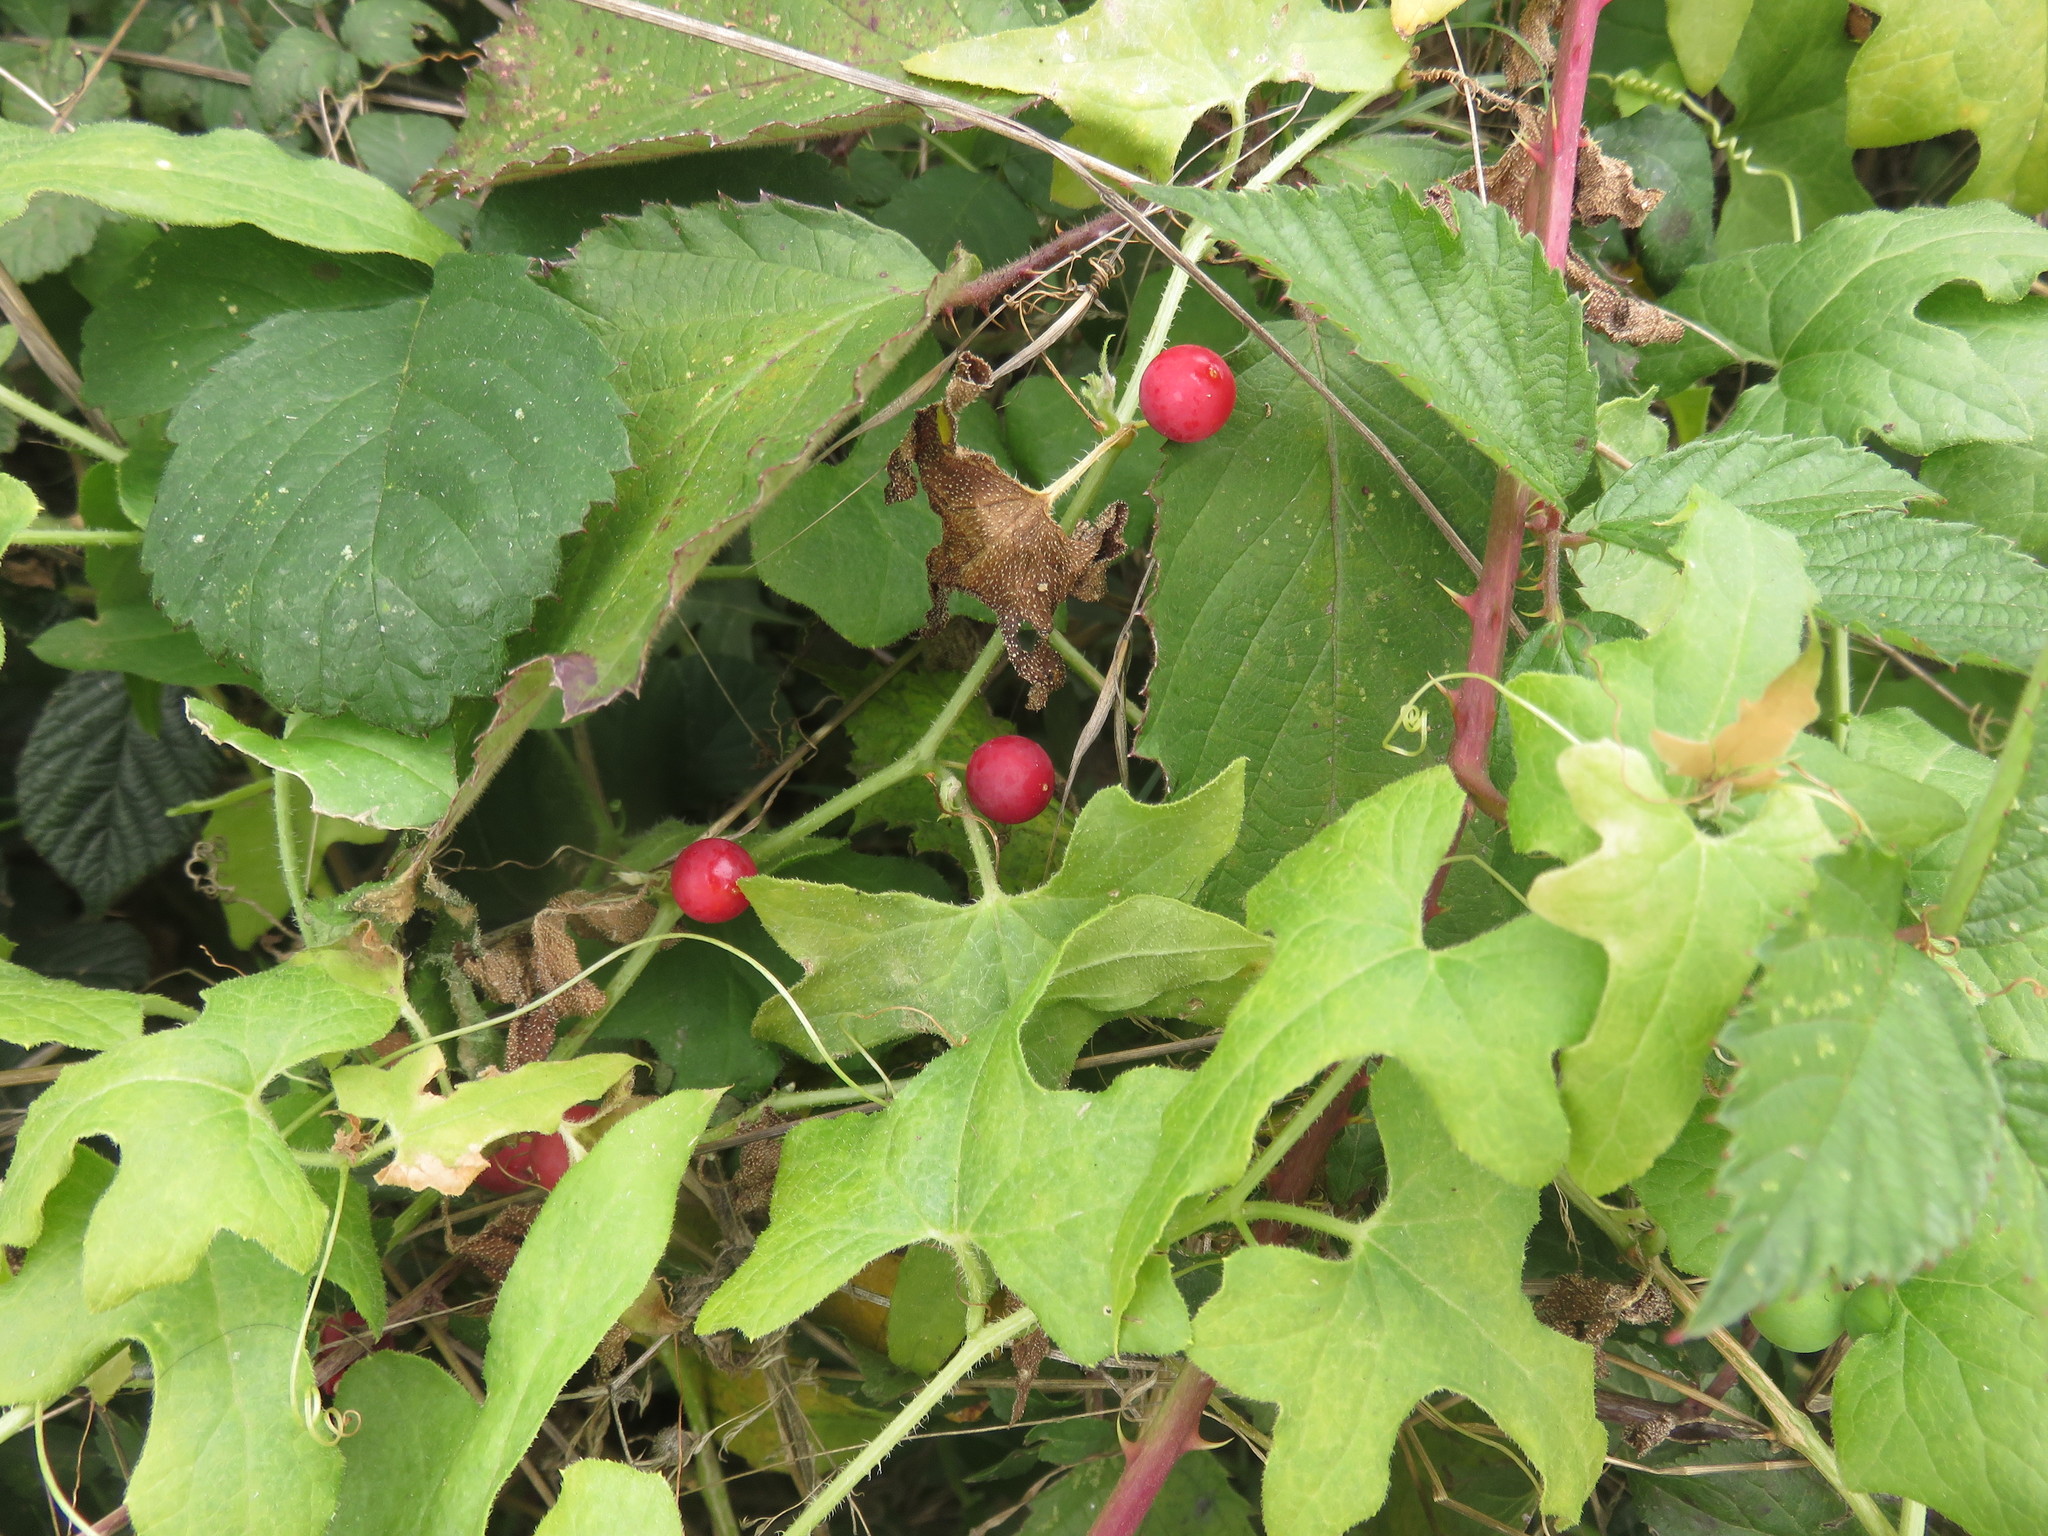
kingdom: Plantae
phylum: Tracheophyta
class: Magnoliopsida
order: Cucurbitales
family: Cucurbitaceae
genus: Bryonia
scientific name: Bryonia cretica
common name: Cretan bryony
